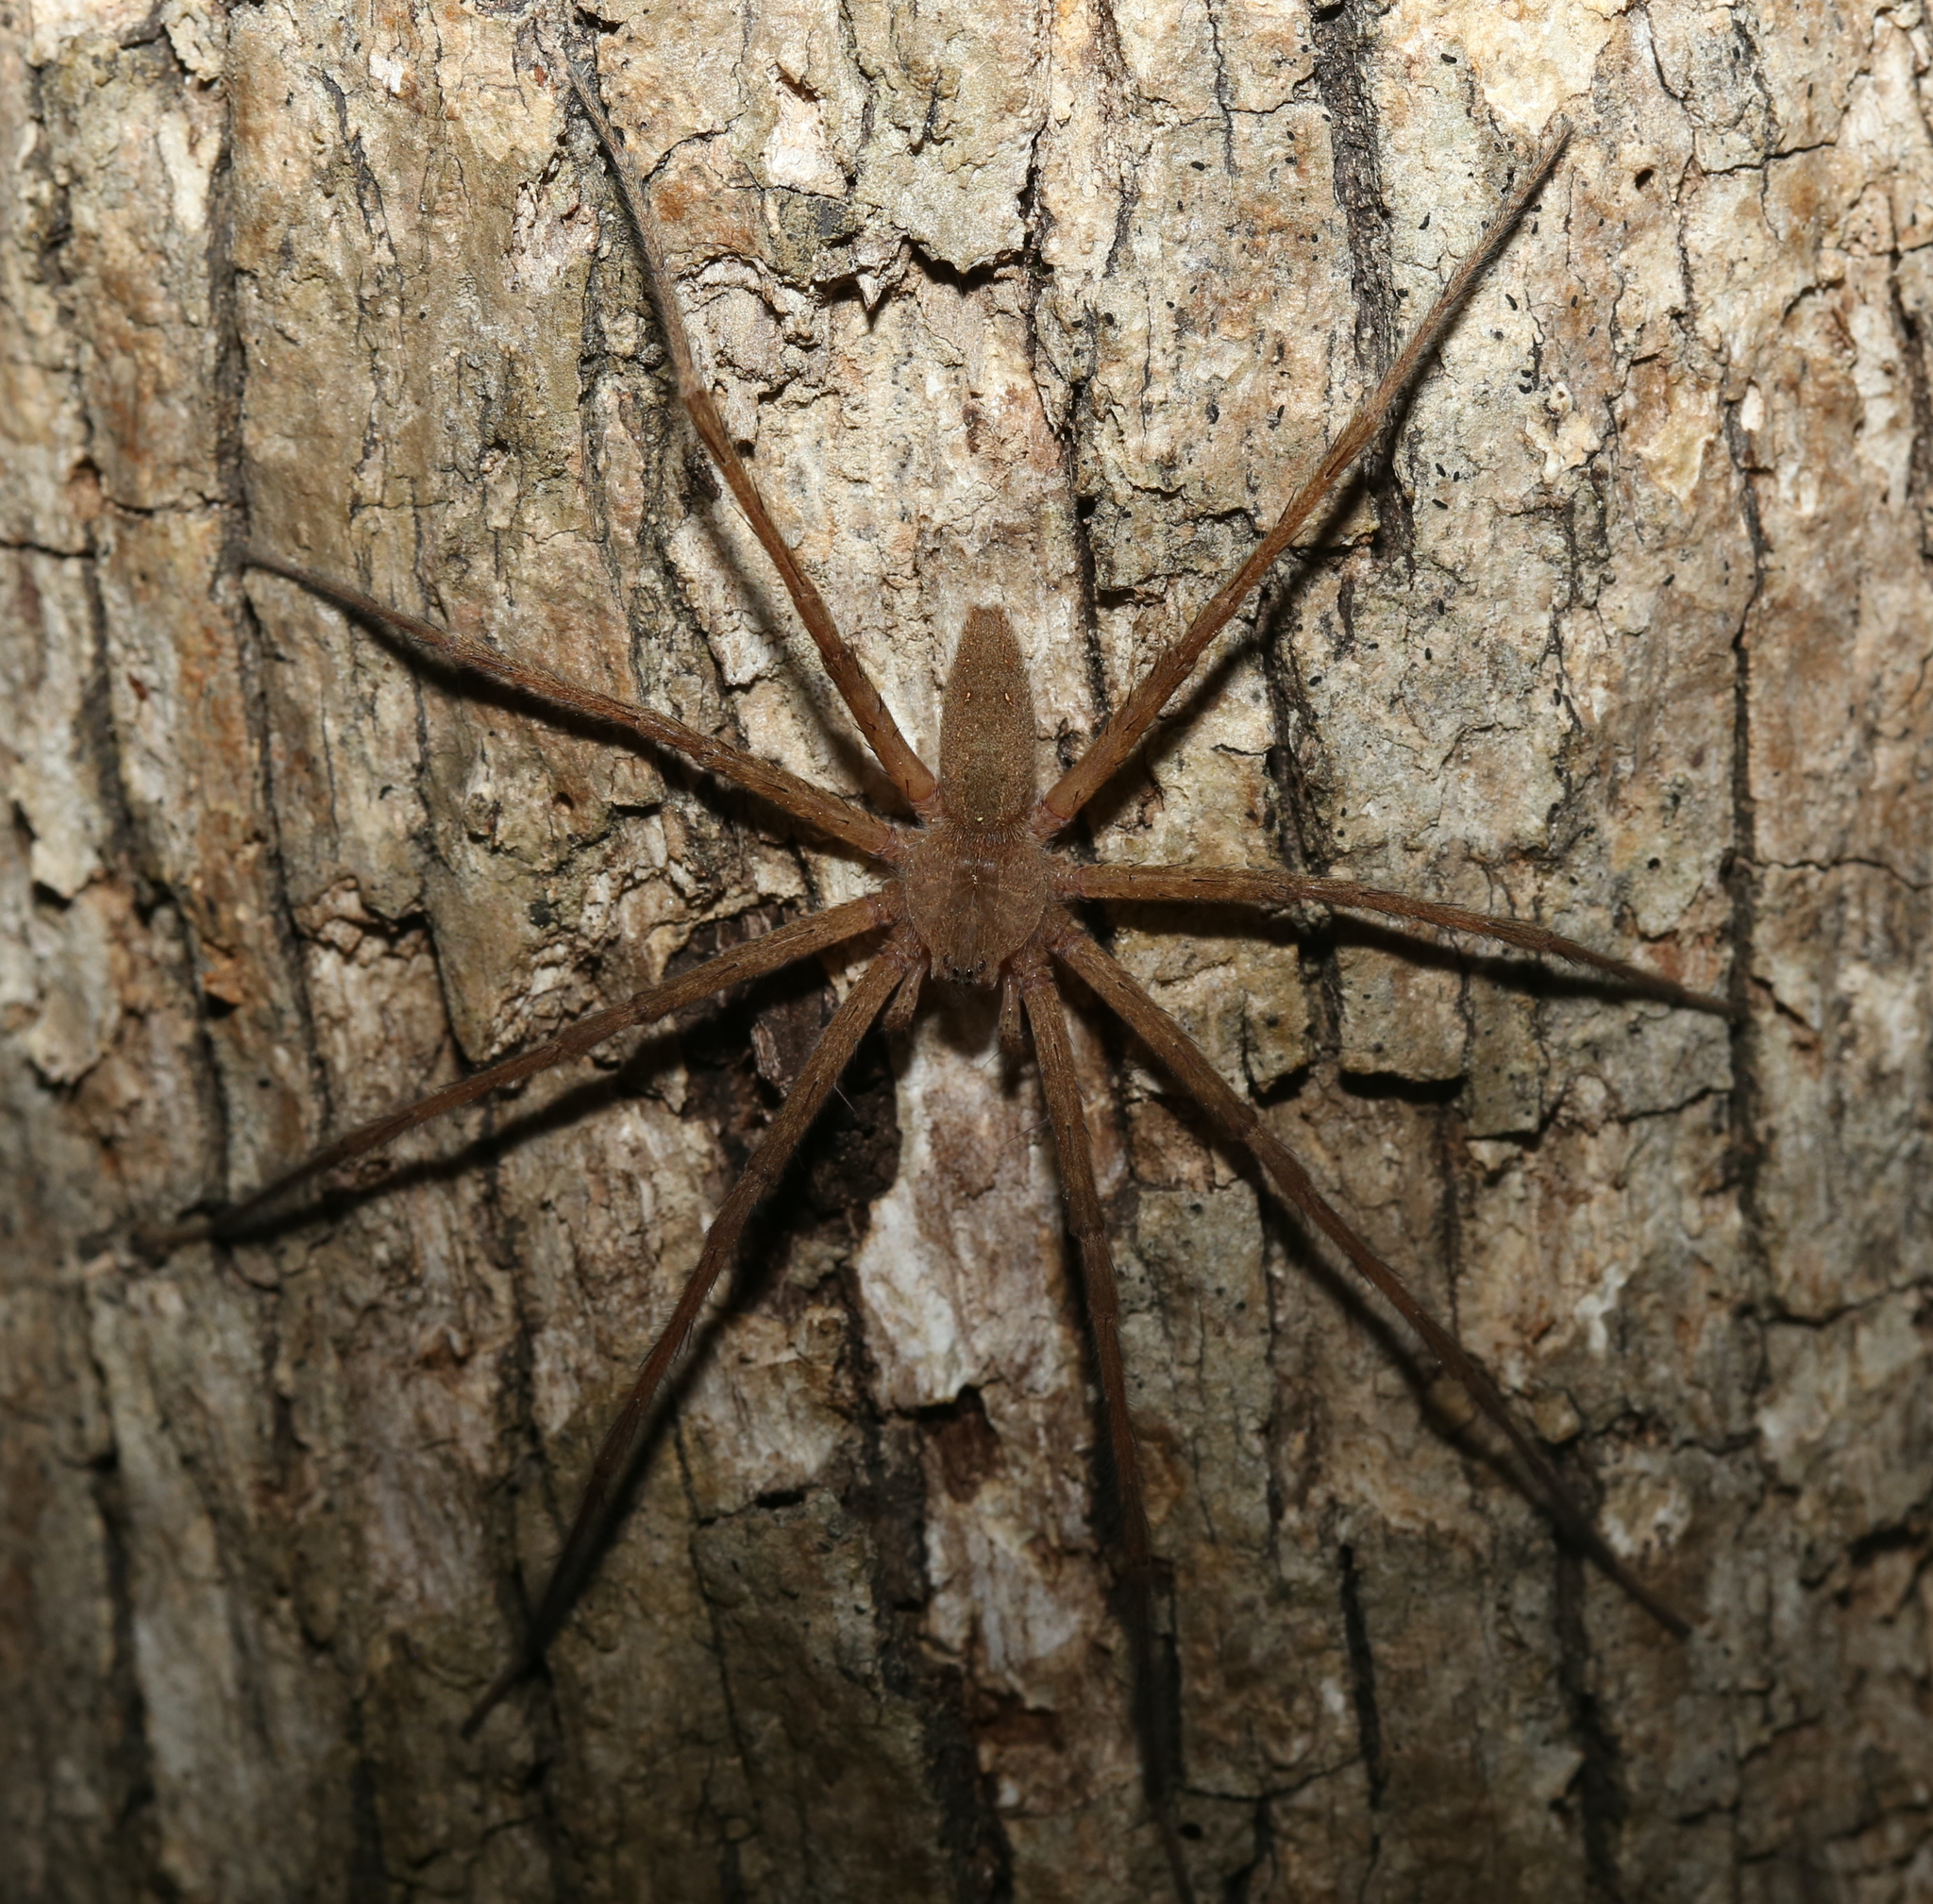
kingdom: Animalia
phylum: Arthropoda
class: Arachnida
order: Araneae
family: Pisauridae
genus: Pisaurina
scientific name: Pisaurina mira
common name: American nursery web spider
